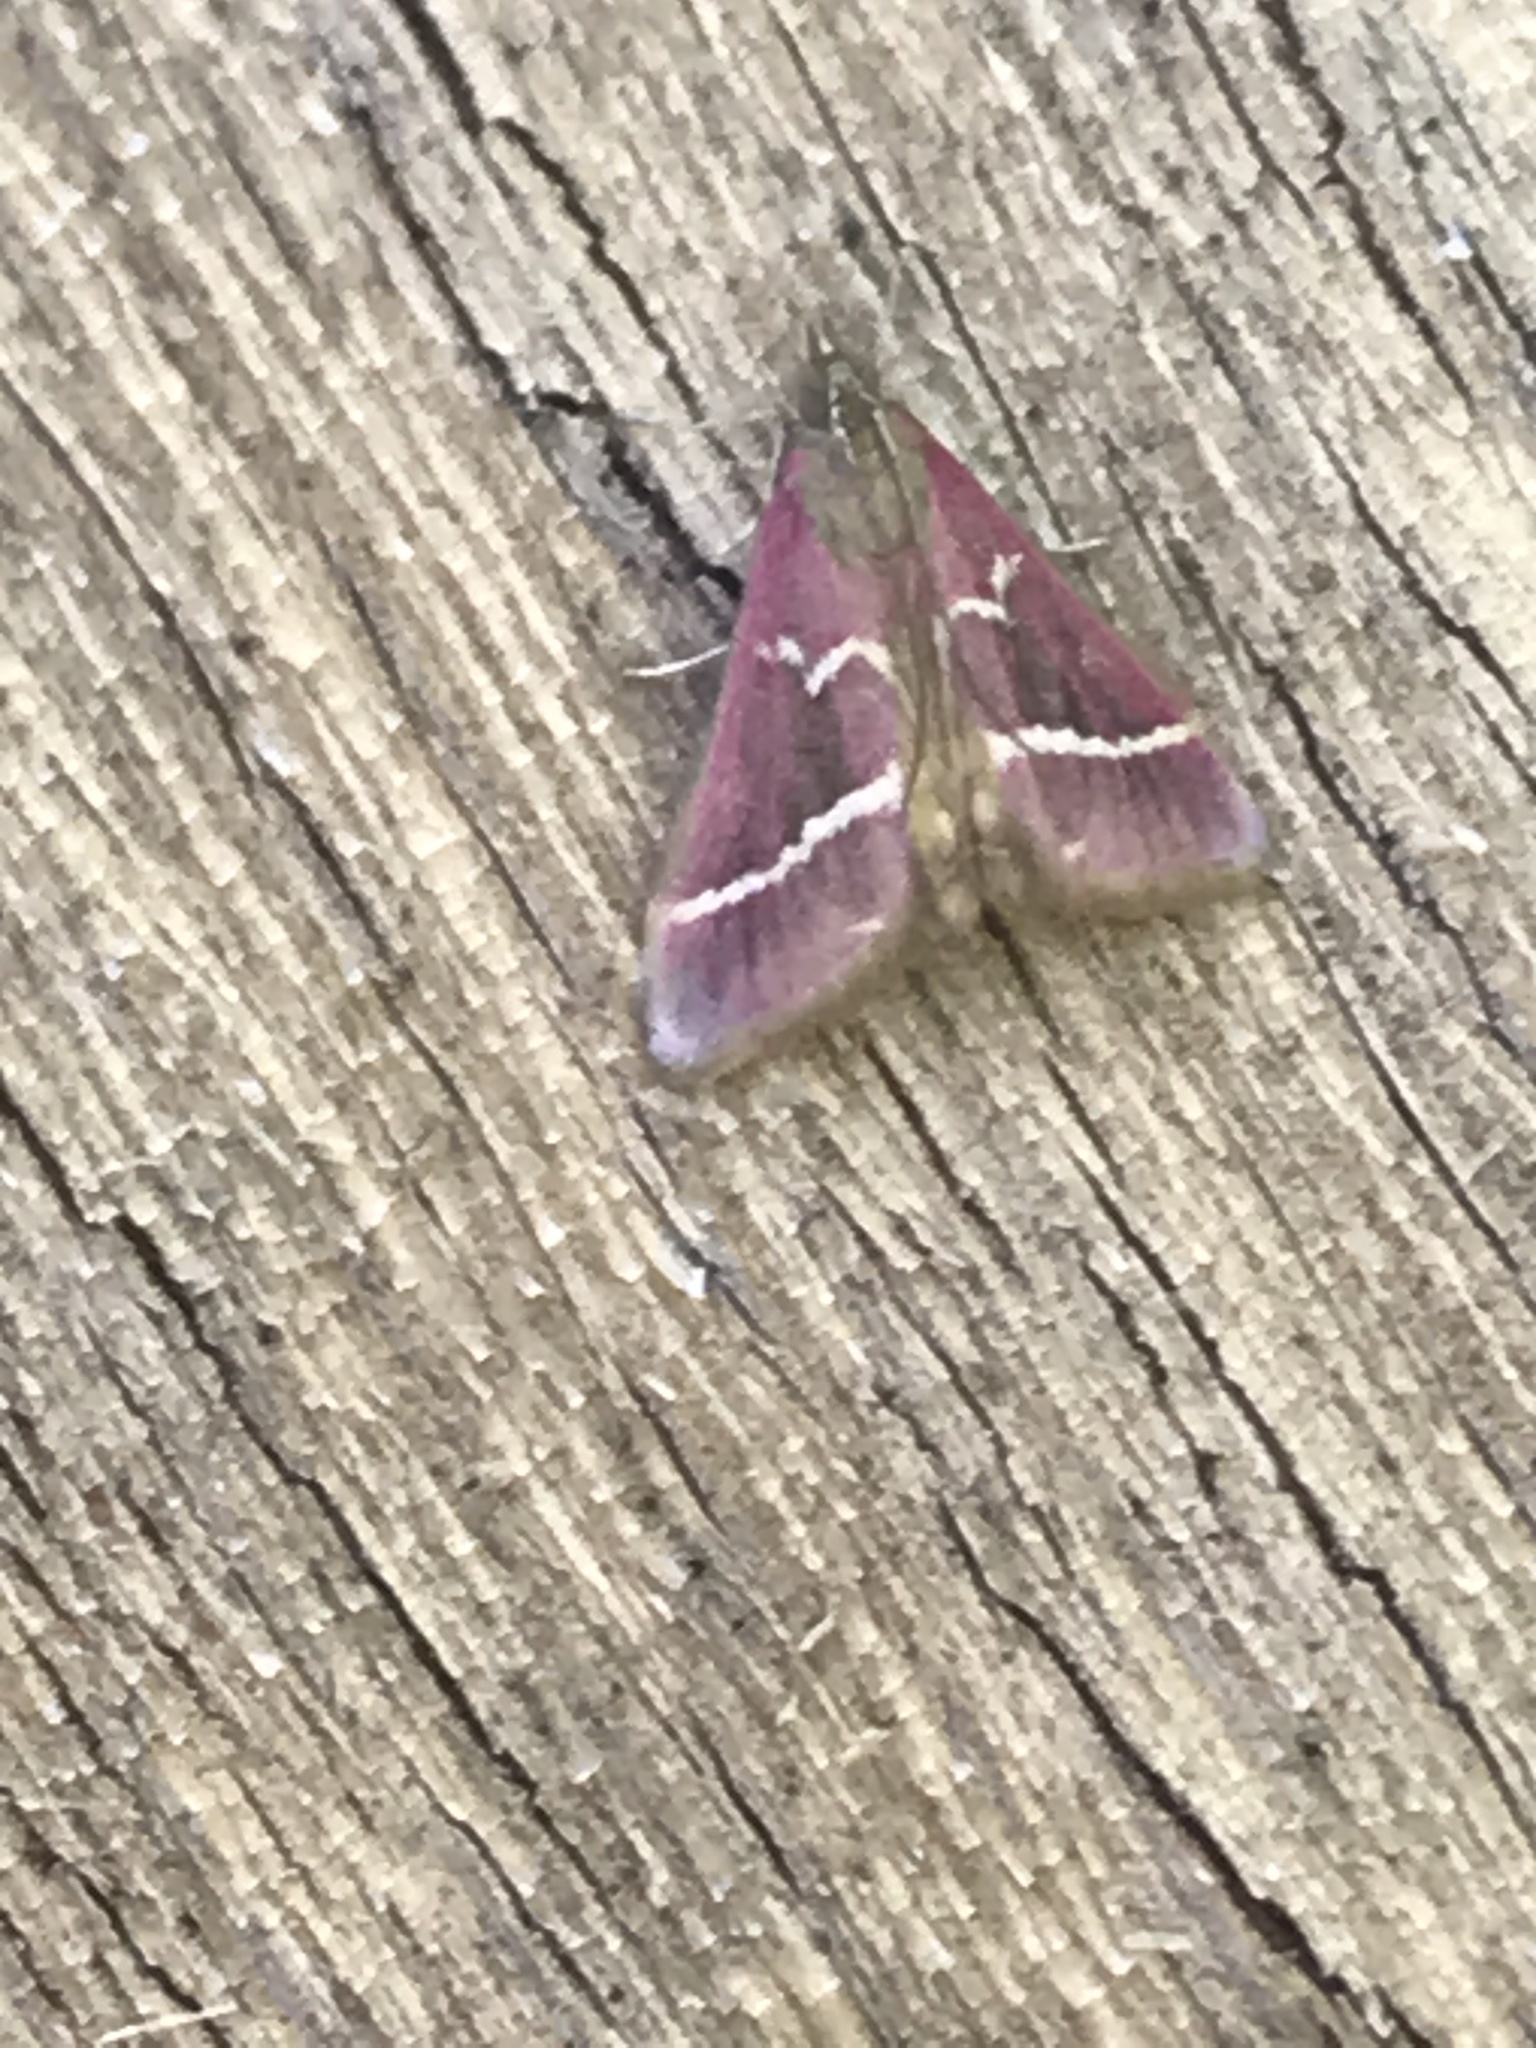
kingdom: Animalia
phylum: Arthropoda
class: Insecta
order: Lepidoptera
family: Crambidae
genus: Pyrausta
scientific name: Pyrausta volupialis
